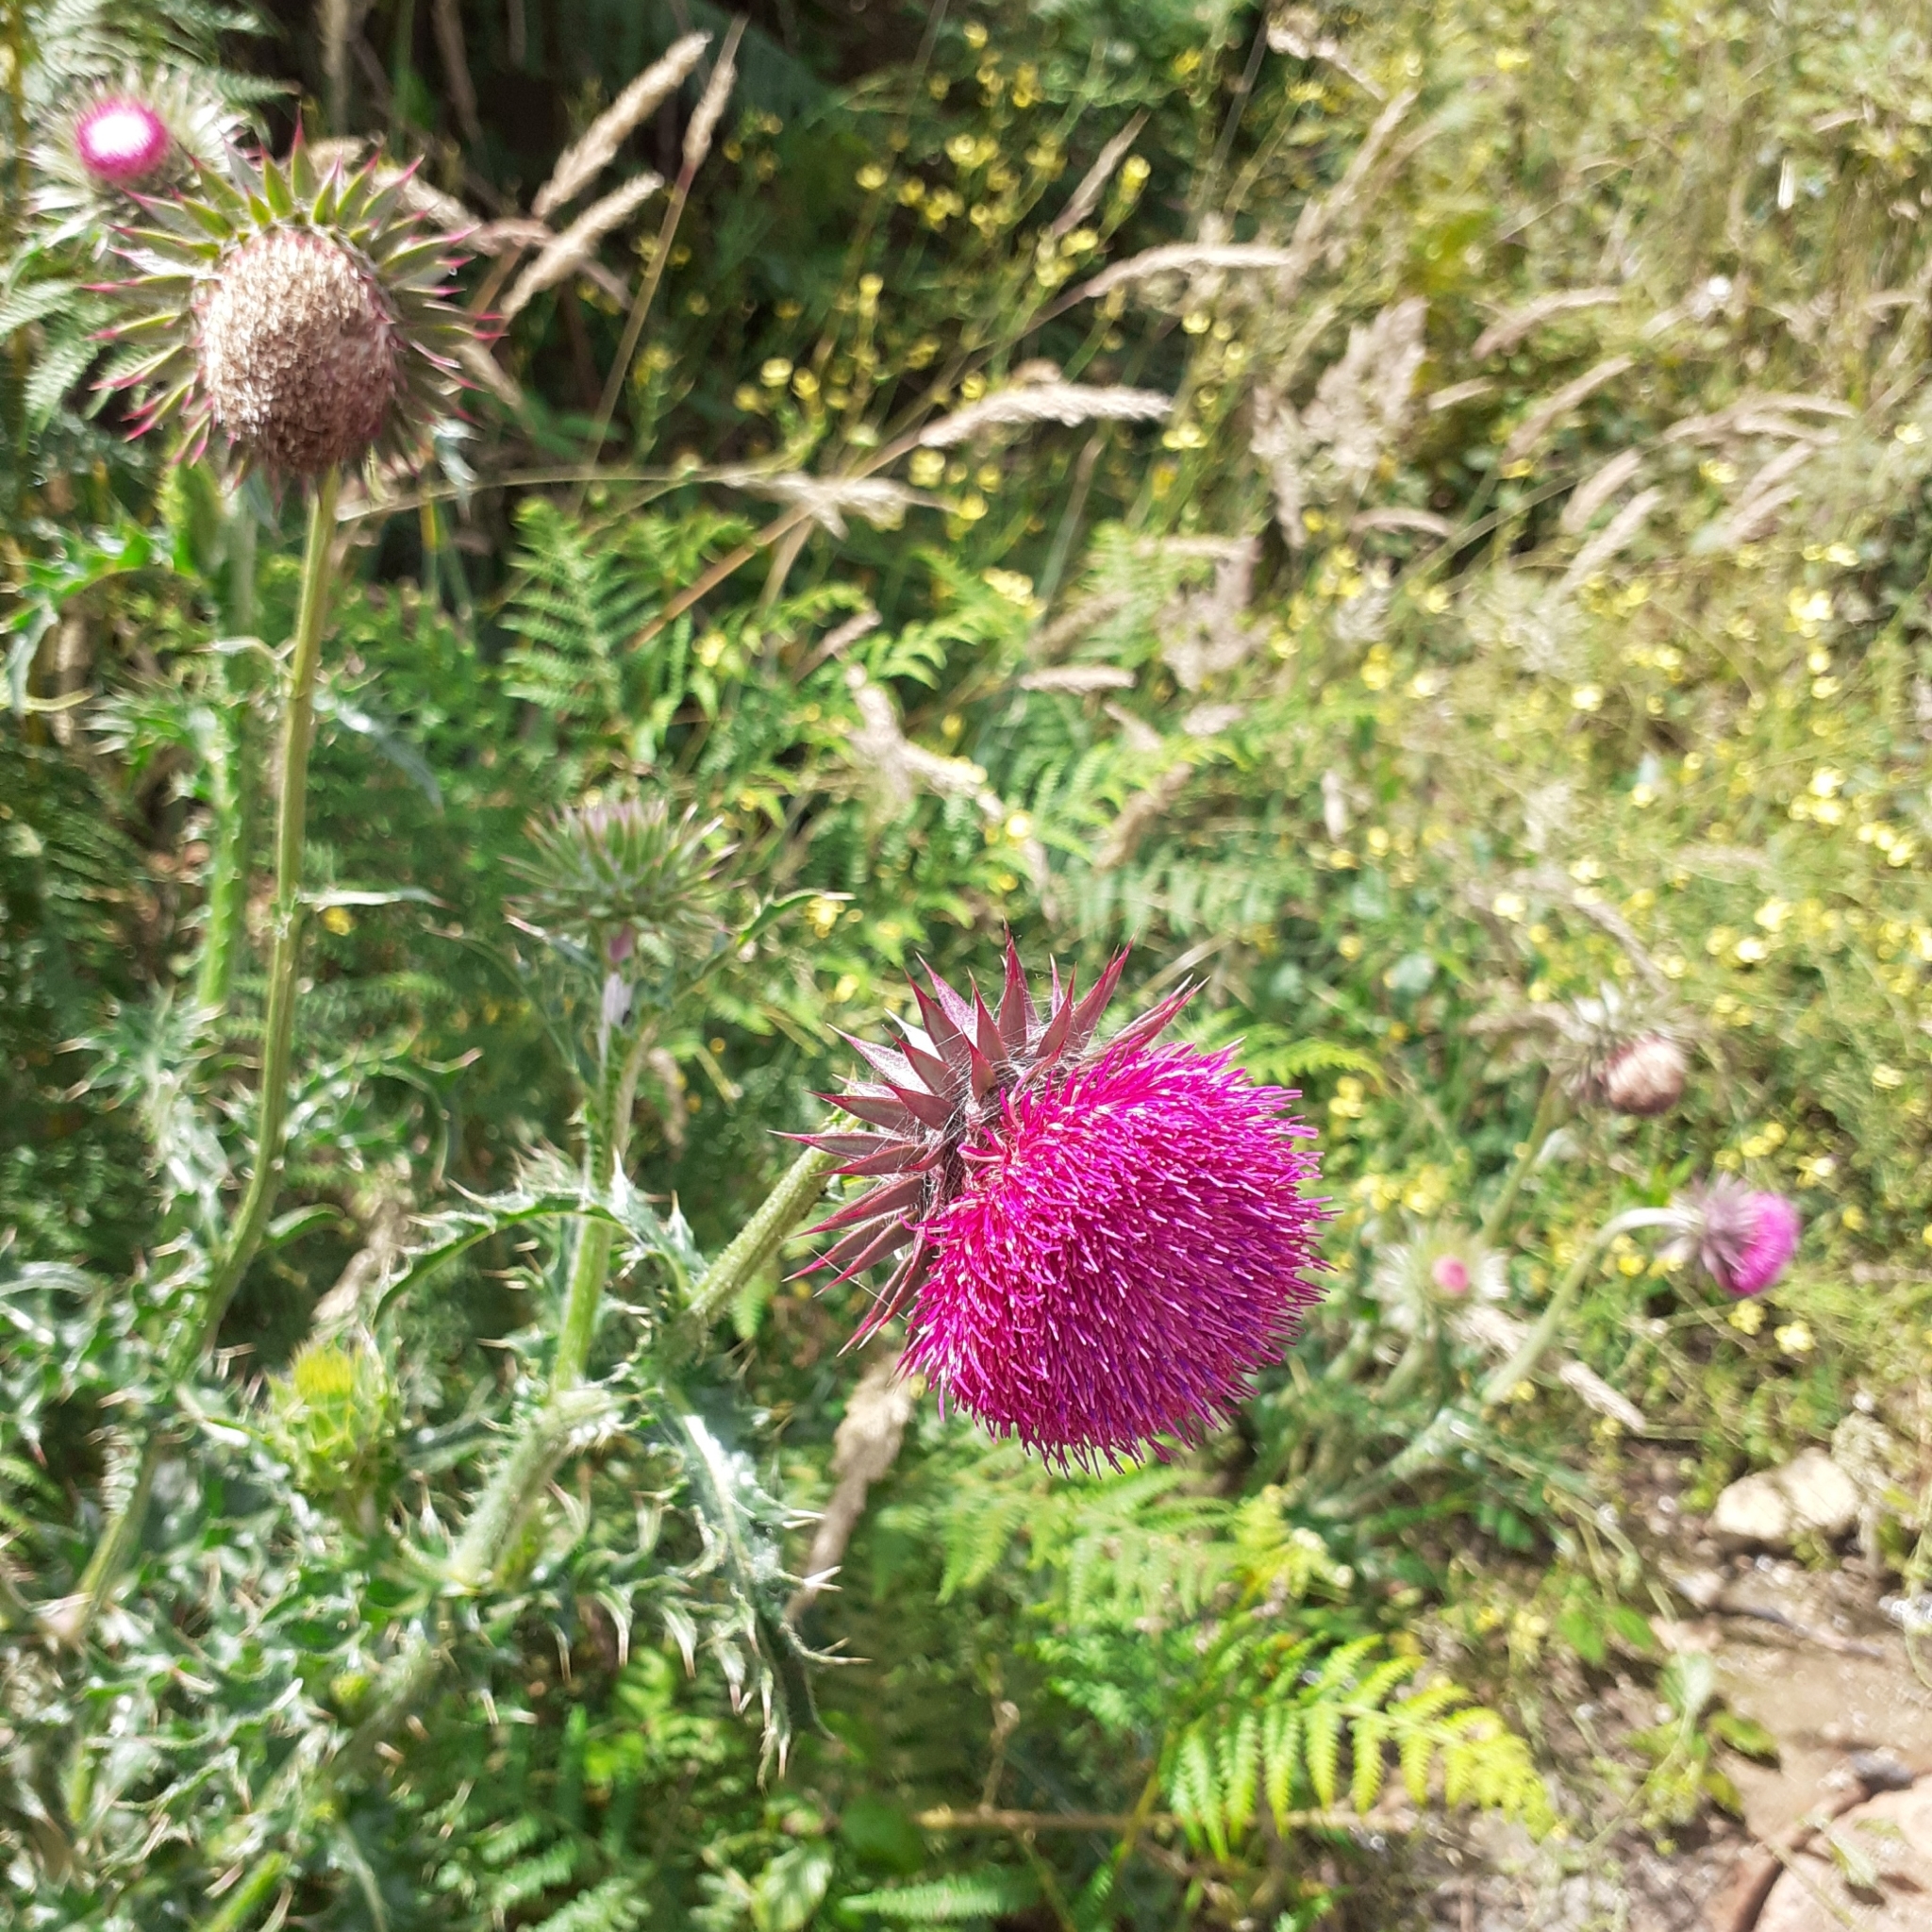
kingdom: Plantae
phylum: Tracheophyta
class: Magnoliopsida
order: Asterales
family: Asteraceae
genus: Carduus
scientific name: Carduus nutans
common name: Musk thistle
